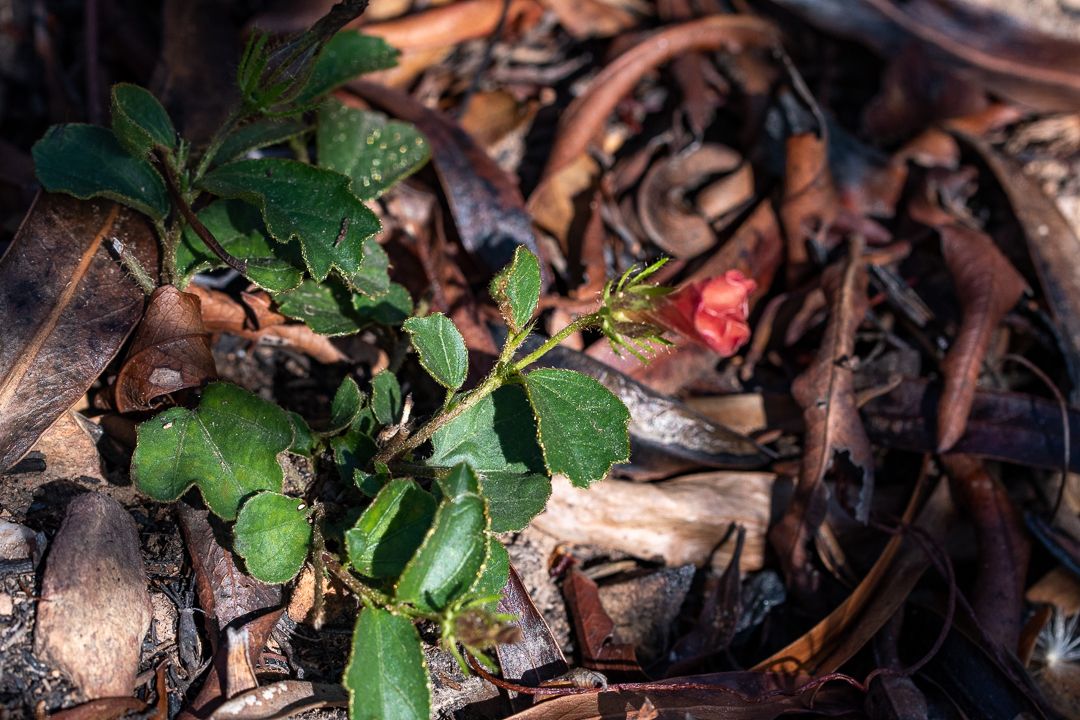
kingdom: Plantae
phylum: Tracheophyta
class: Magnoliopsida
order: Malvales
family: Malvaceae
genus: Hibiscus
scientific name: Hibiscus aethiopicus
